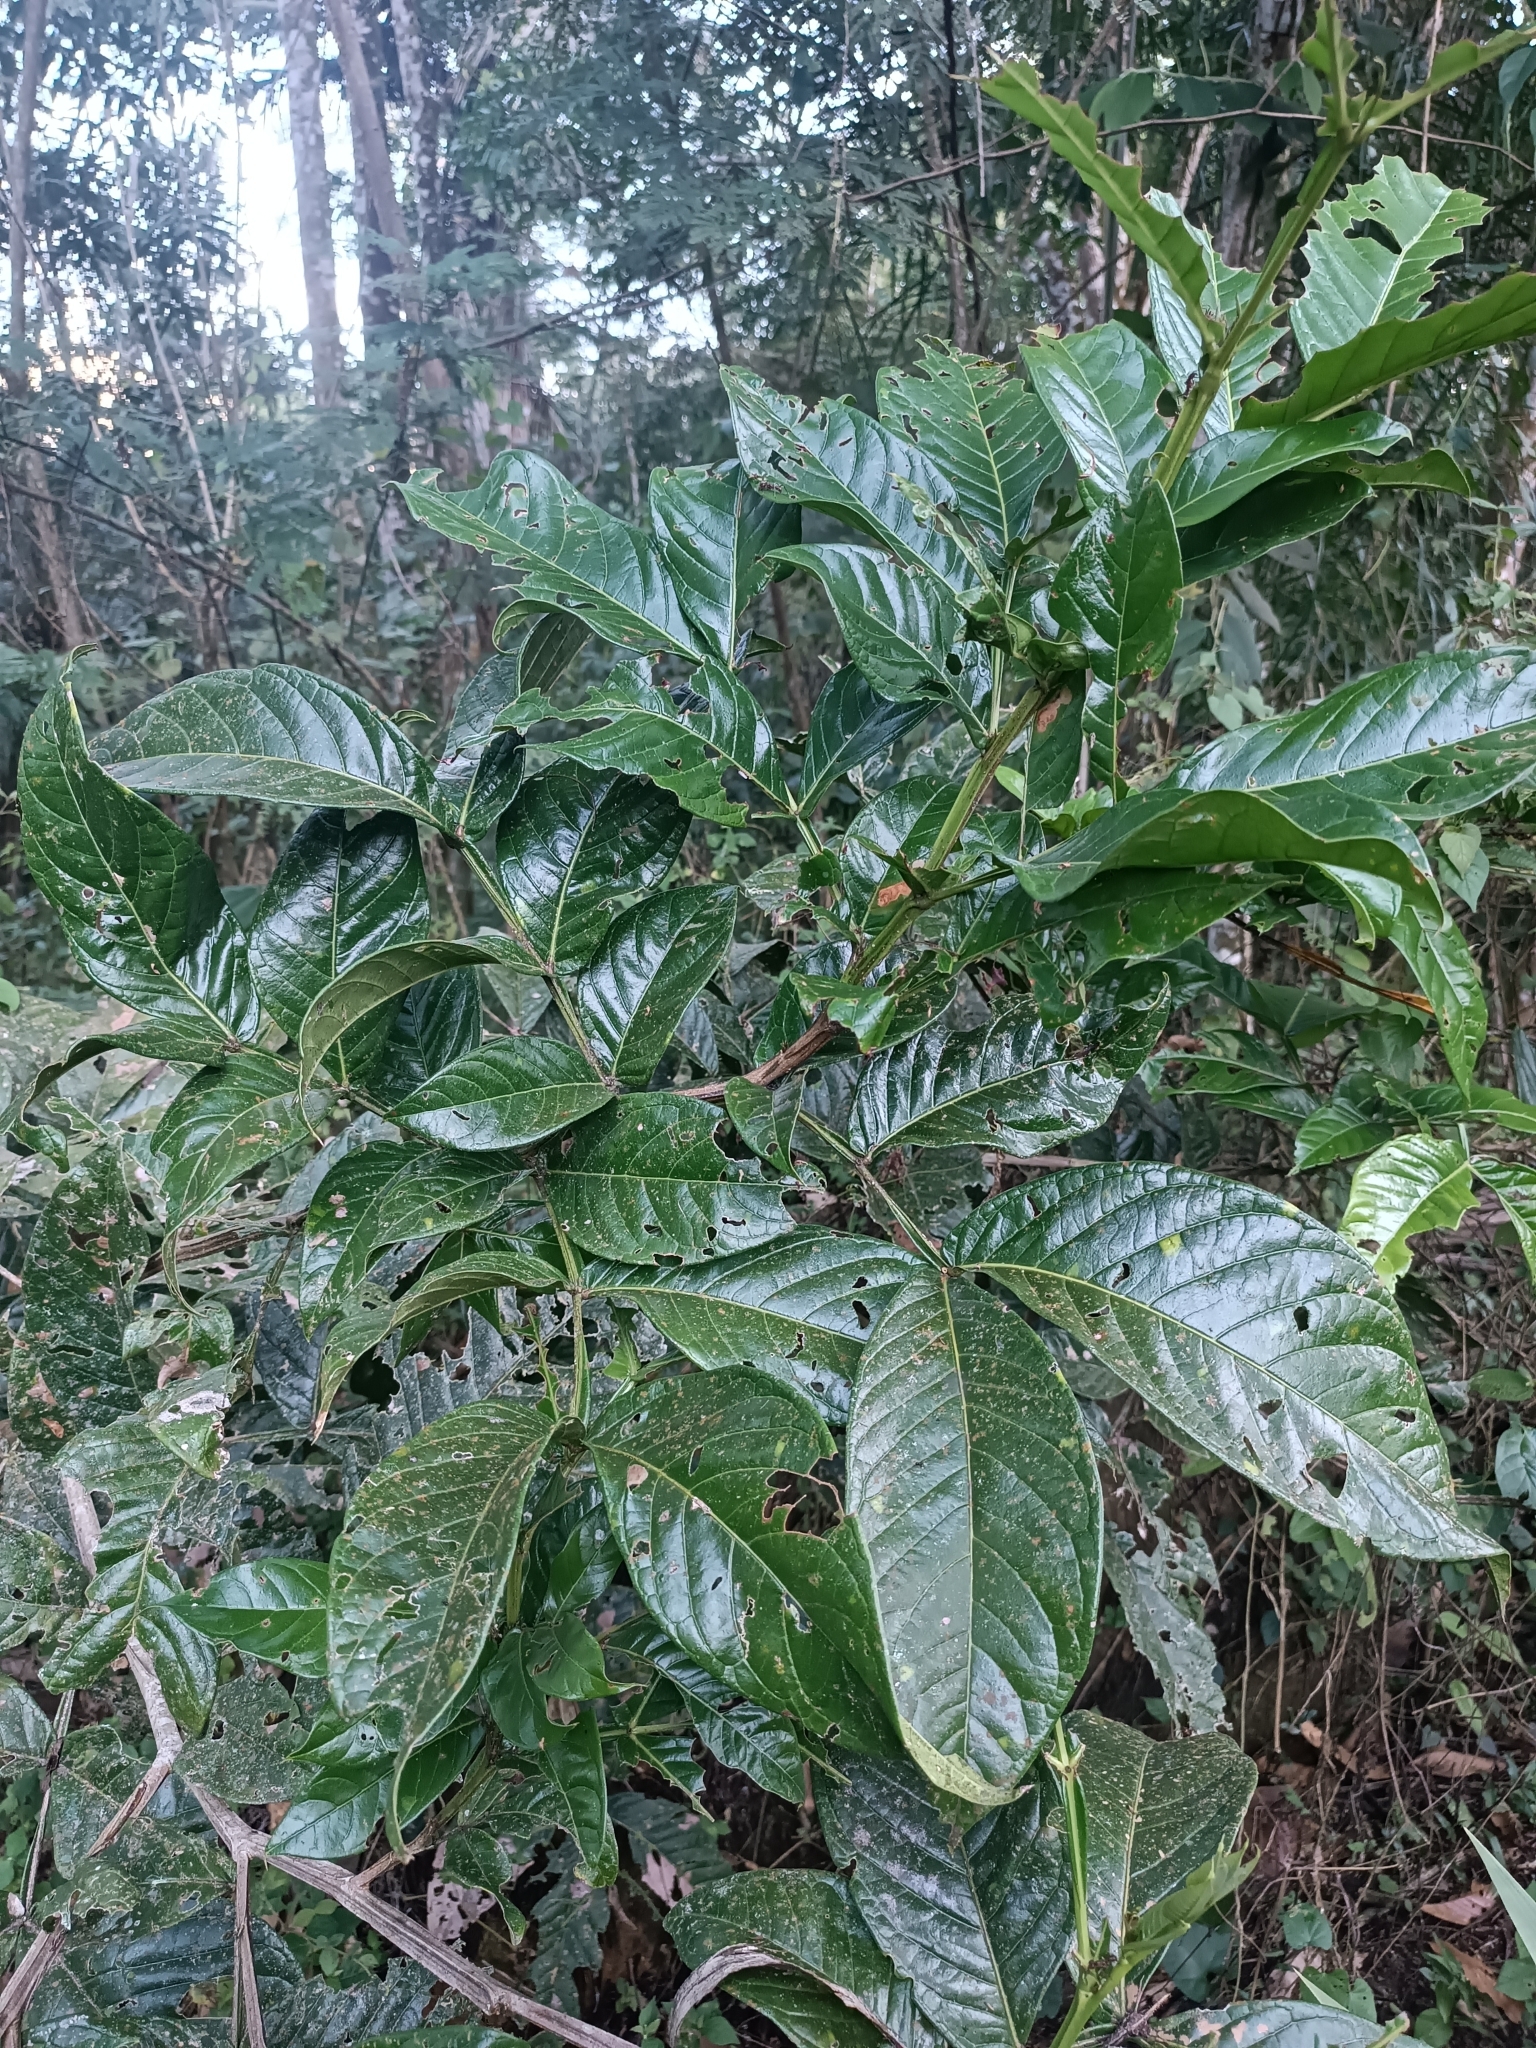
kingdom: Plantae
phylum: Tracheophyta
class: Magnoliopsida
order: Fabales
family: Fabaceae
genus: Inga
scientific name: Inga spectabilis
